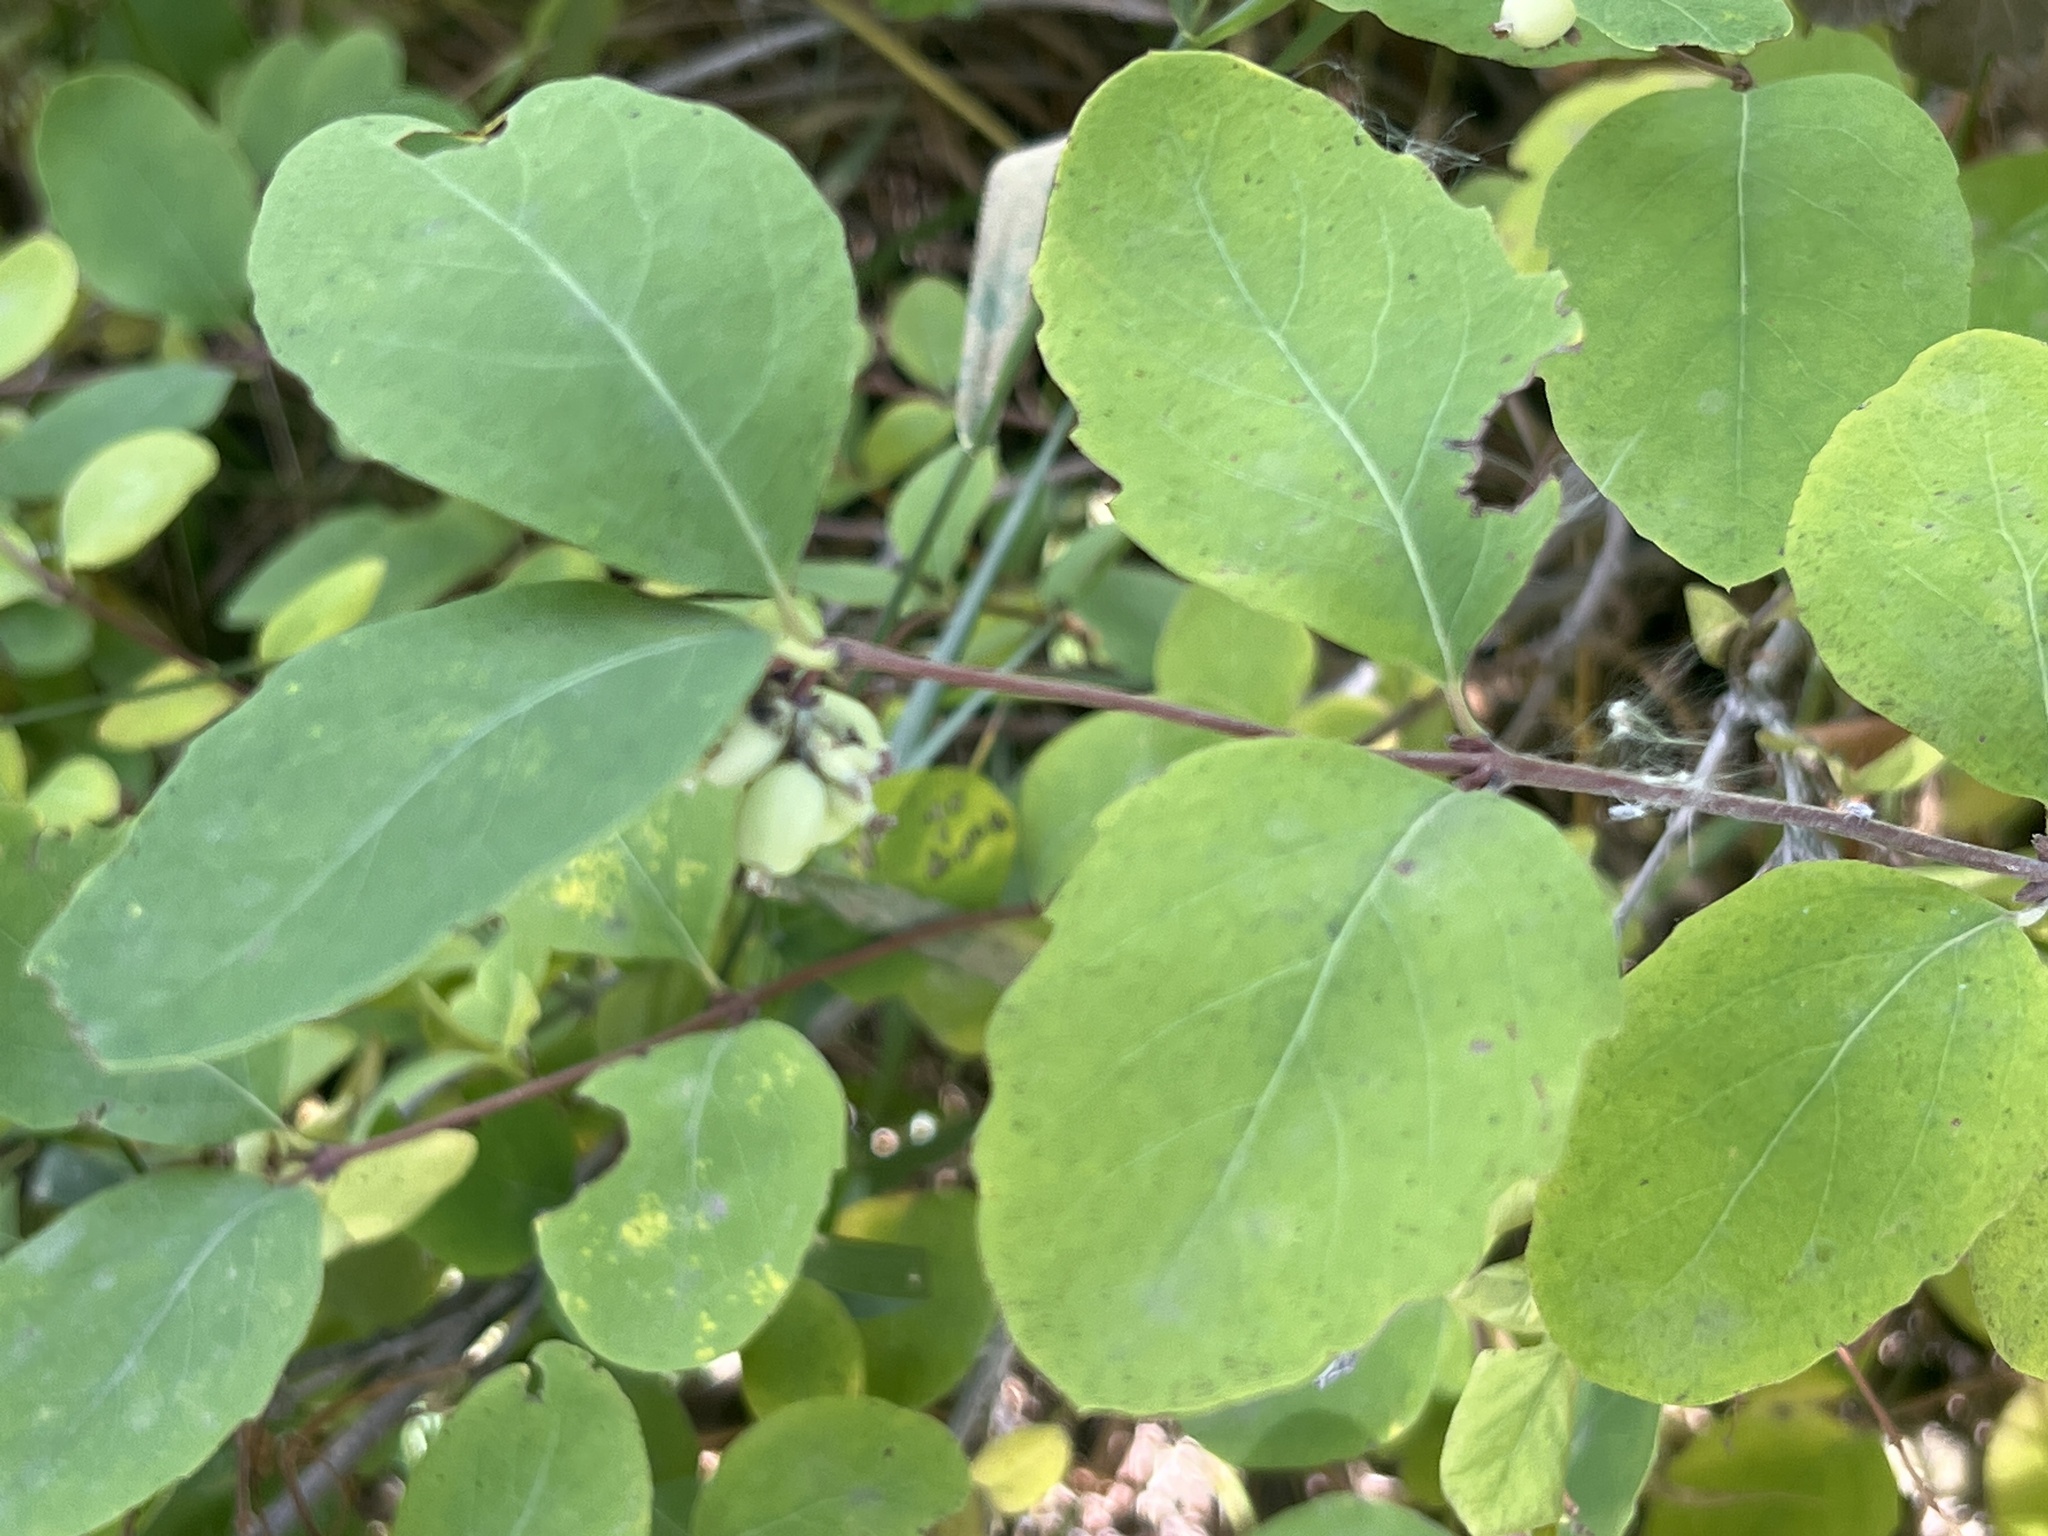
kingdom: Plantae
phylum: Tracheophyta
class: Magnoliopsida
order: Dipsacales
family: Caprifoliaceae
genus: Symphoricarpos
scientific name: Symphoricarpos occidentalis
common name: Wolfberry
